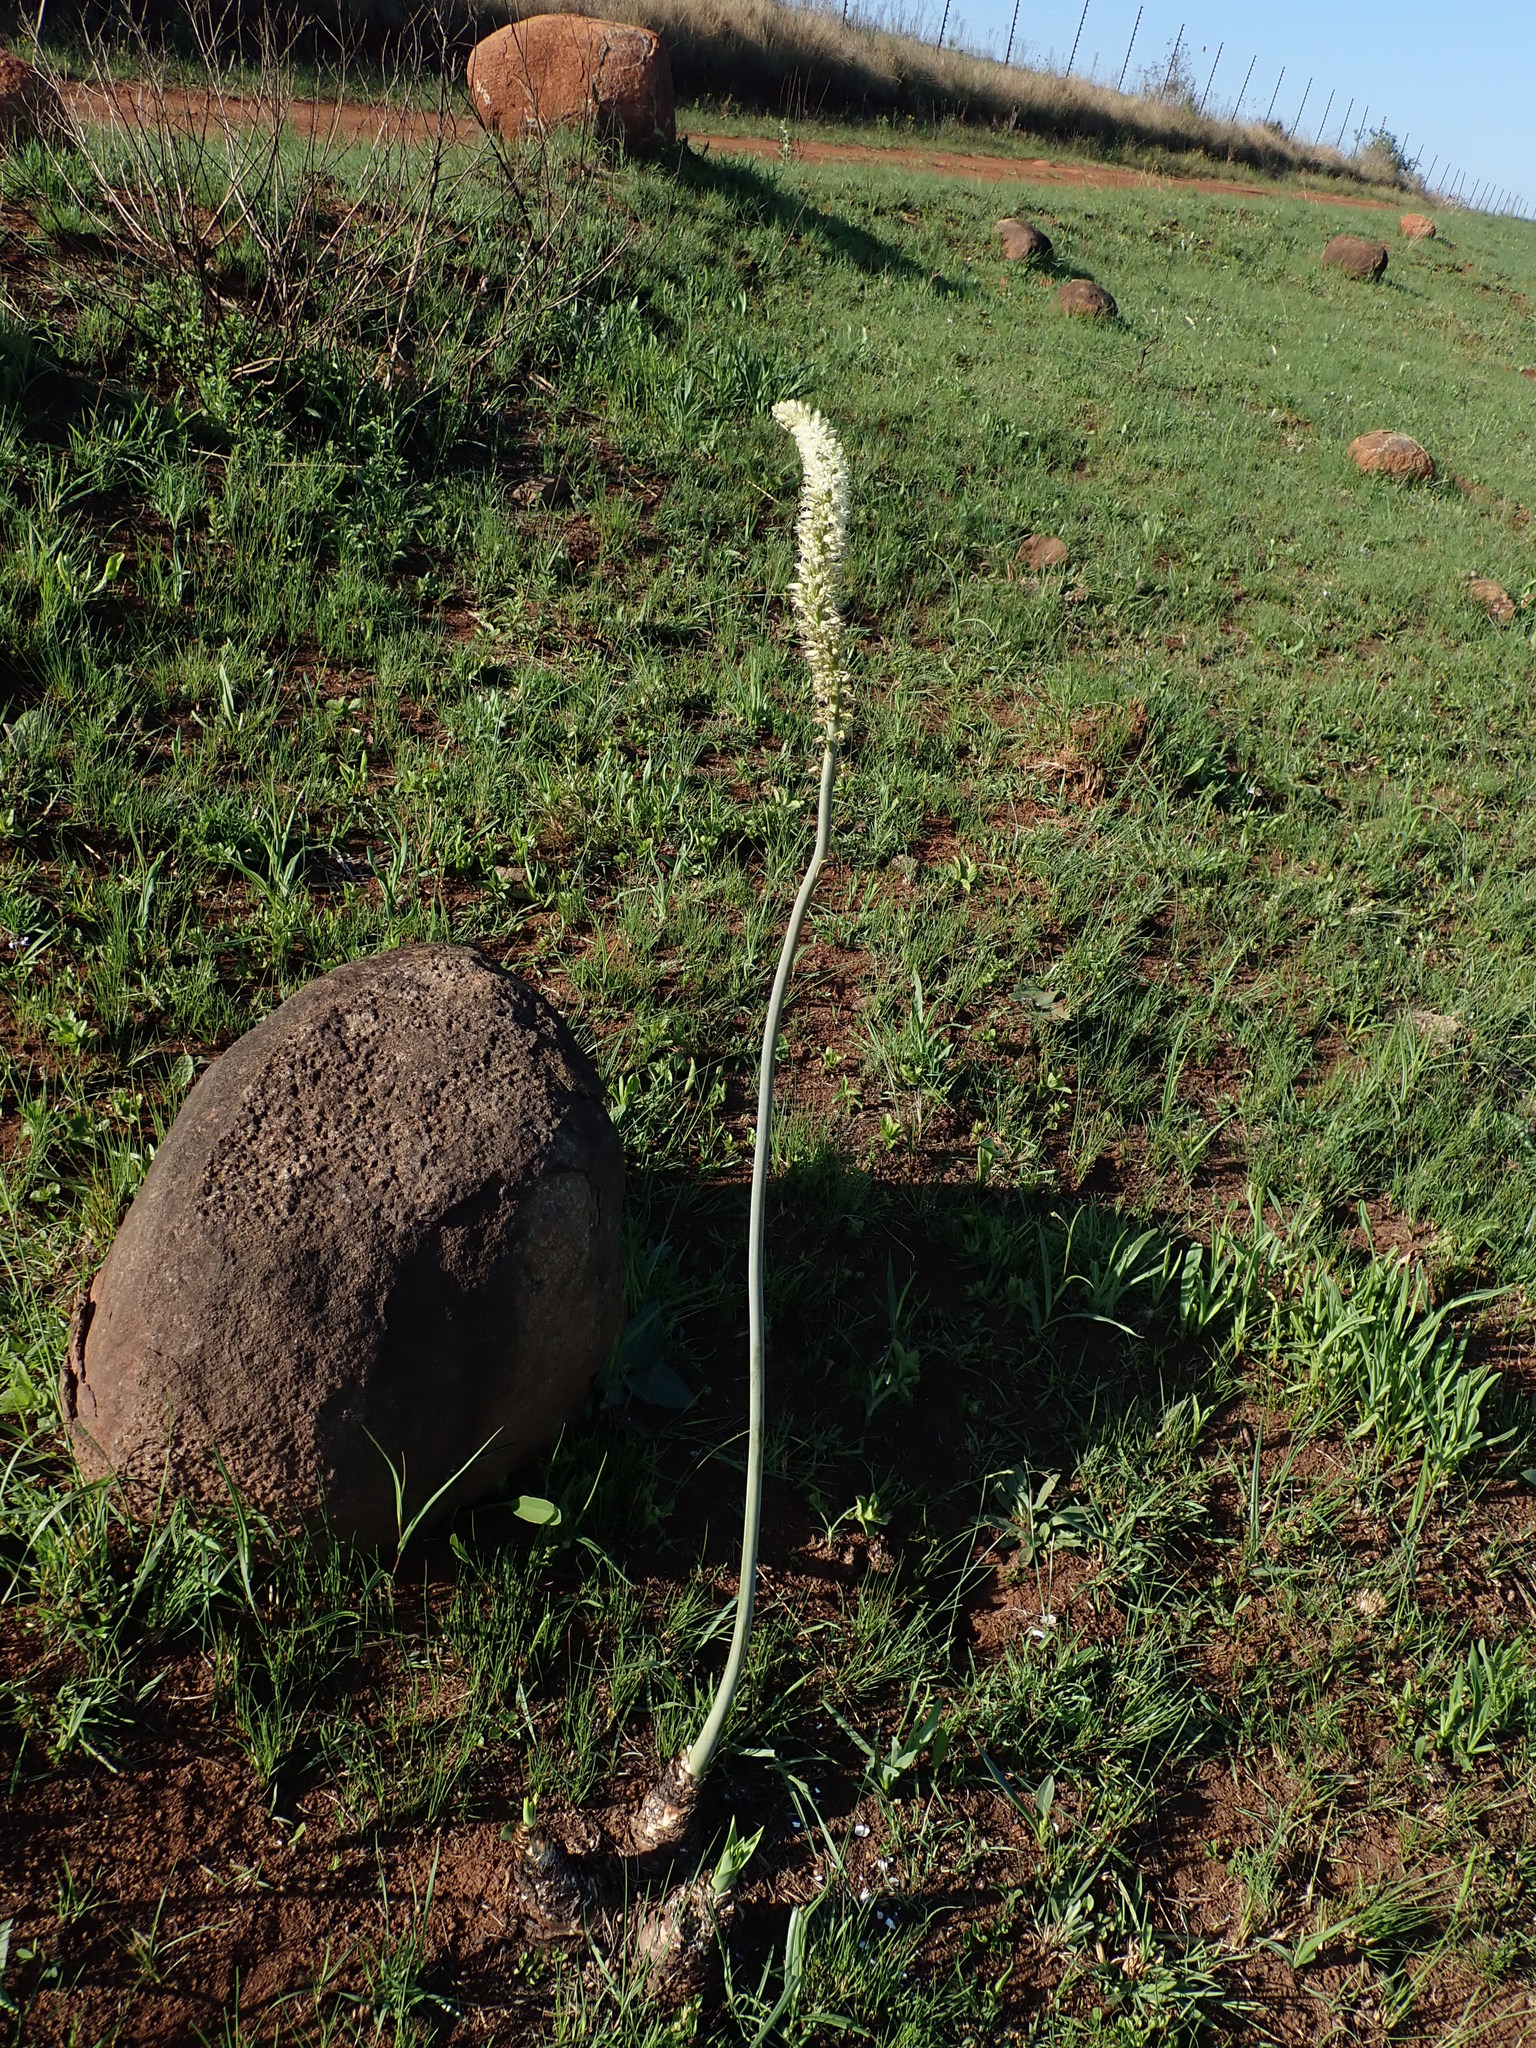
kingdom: Plantae
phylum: Tracheophyta
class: Liliopsida
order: Asparagales
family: Asparagaceae
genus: Drimia
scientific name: Drimia altissima
